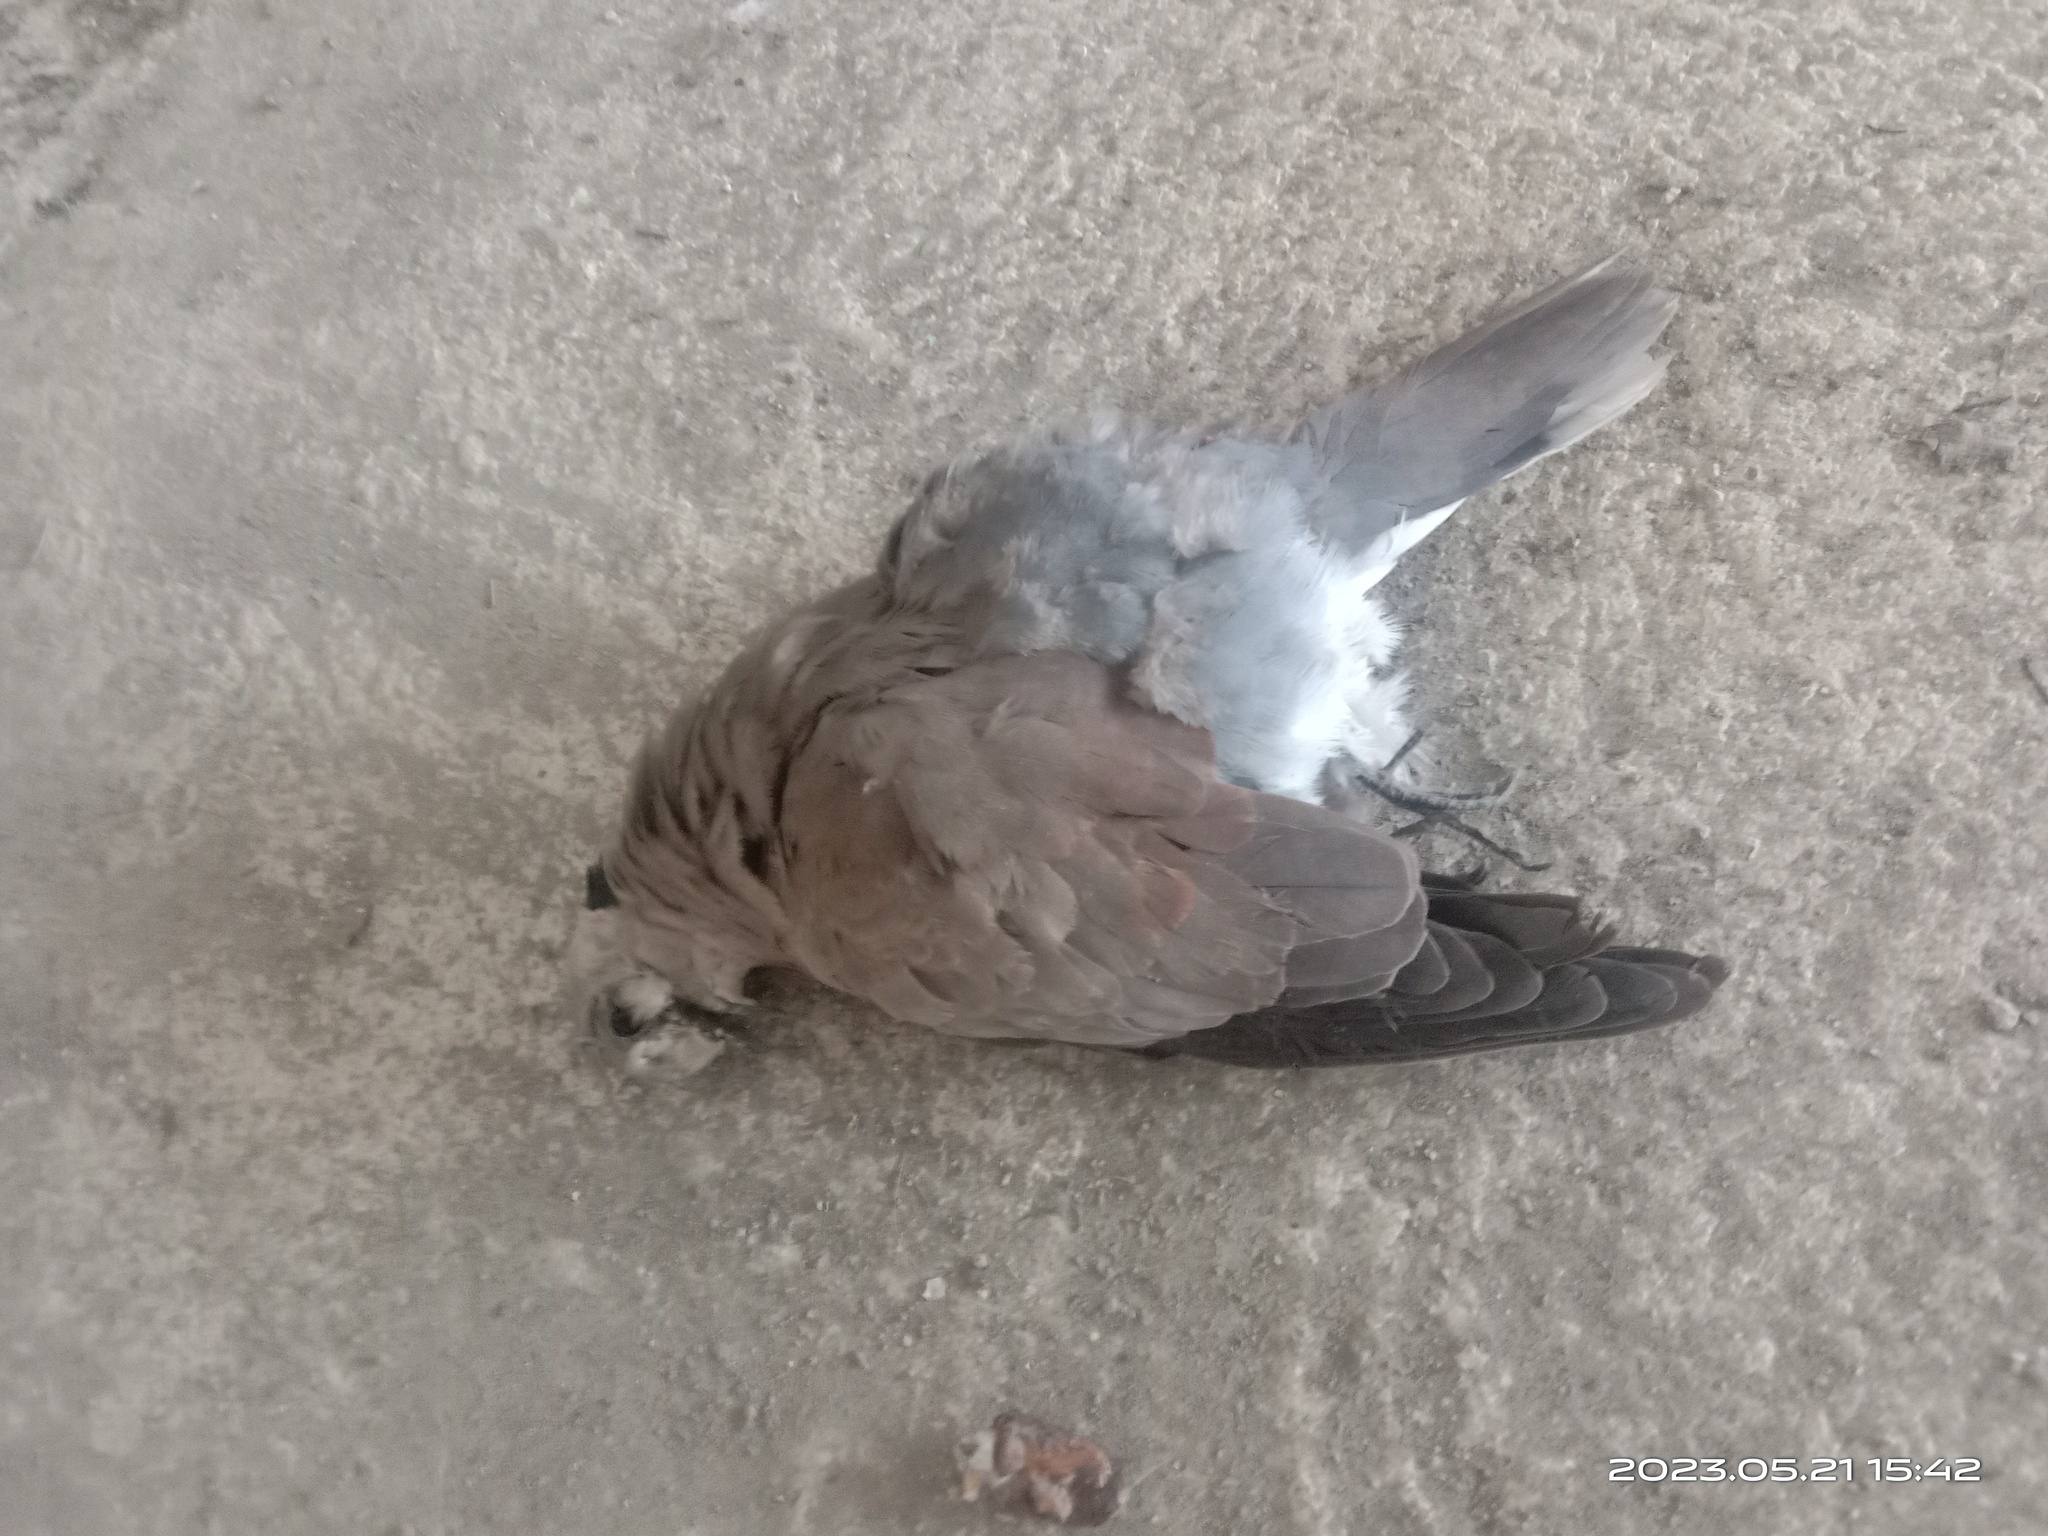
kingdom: Animalia
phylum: Chordata
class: Aves
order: Columbiformes
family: Columbidae
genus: Streptopelia
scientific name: Streptopelia tranquebarica
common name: Red turtle dove
